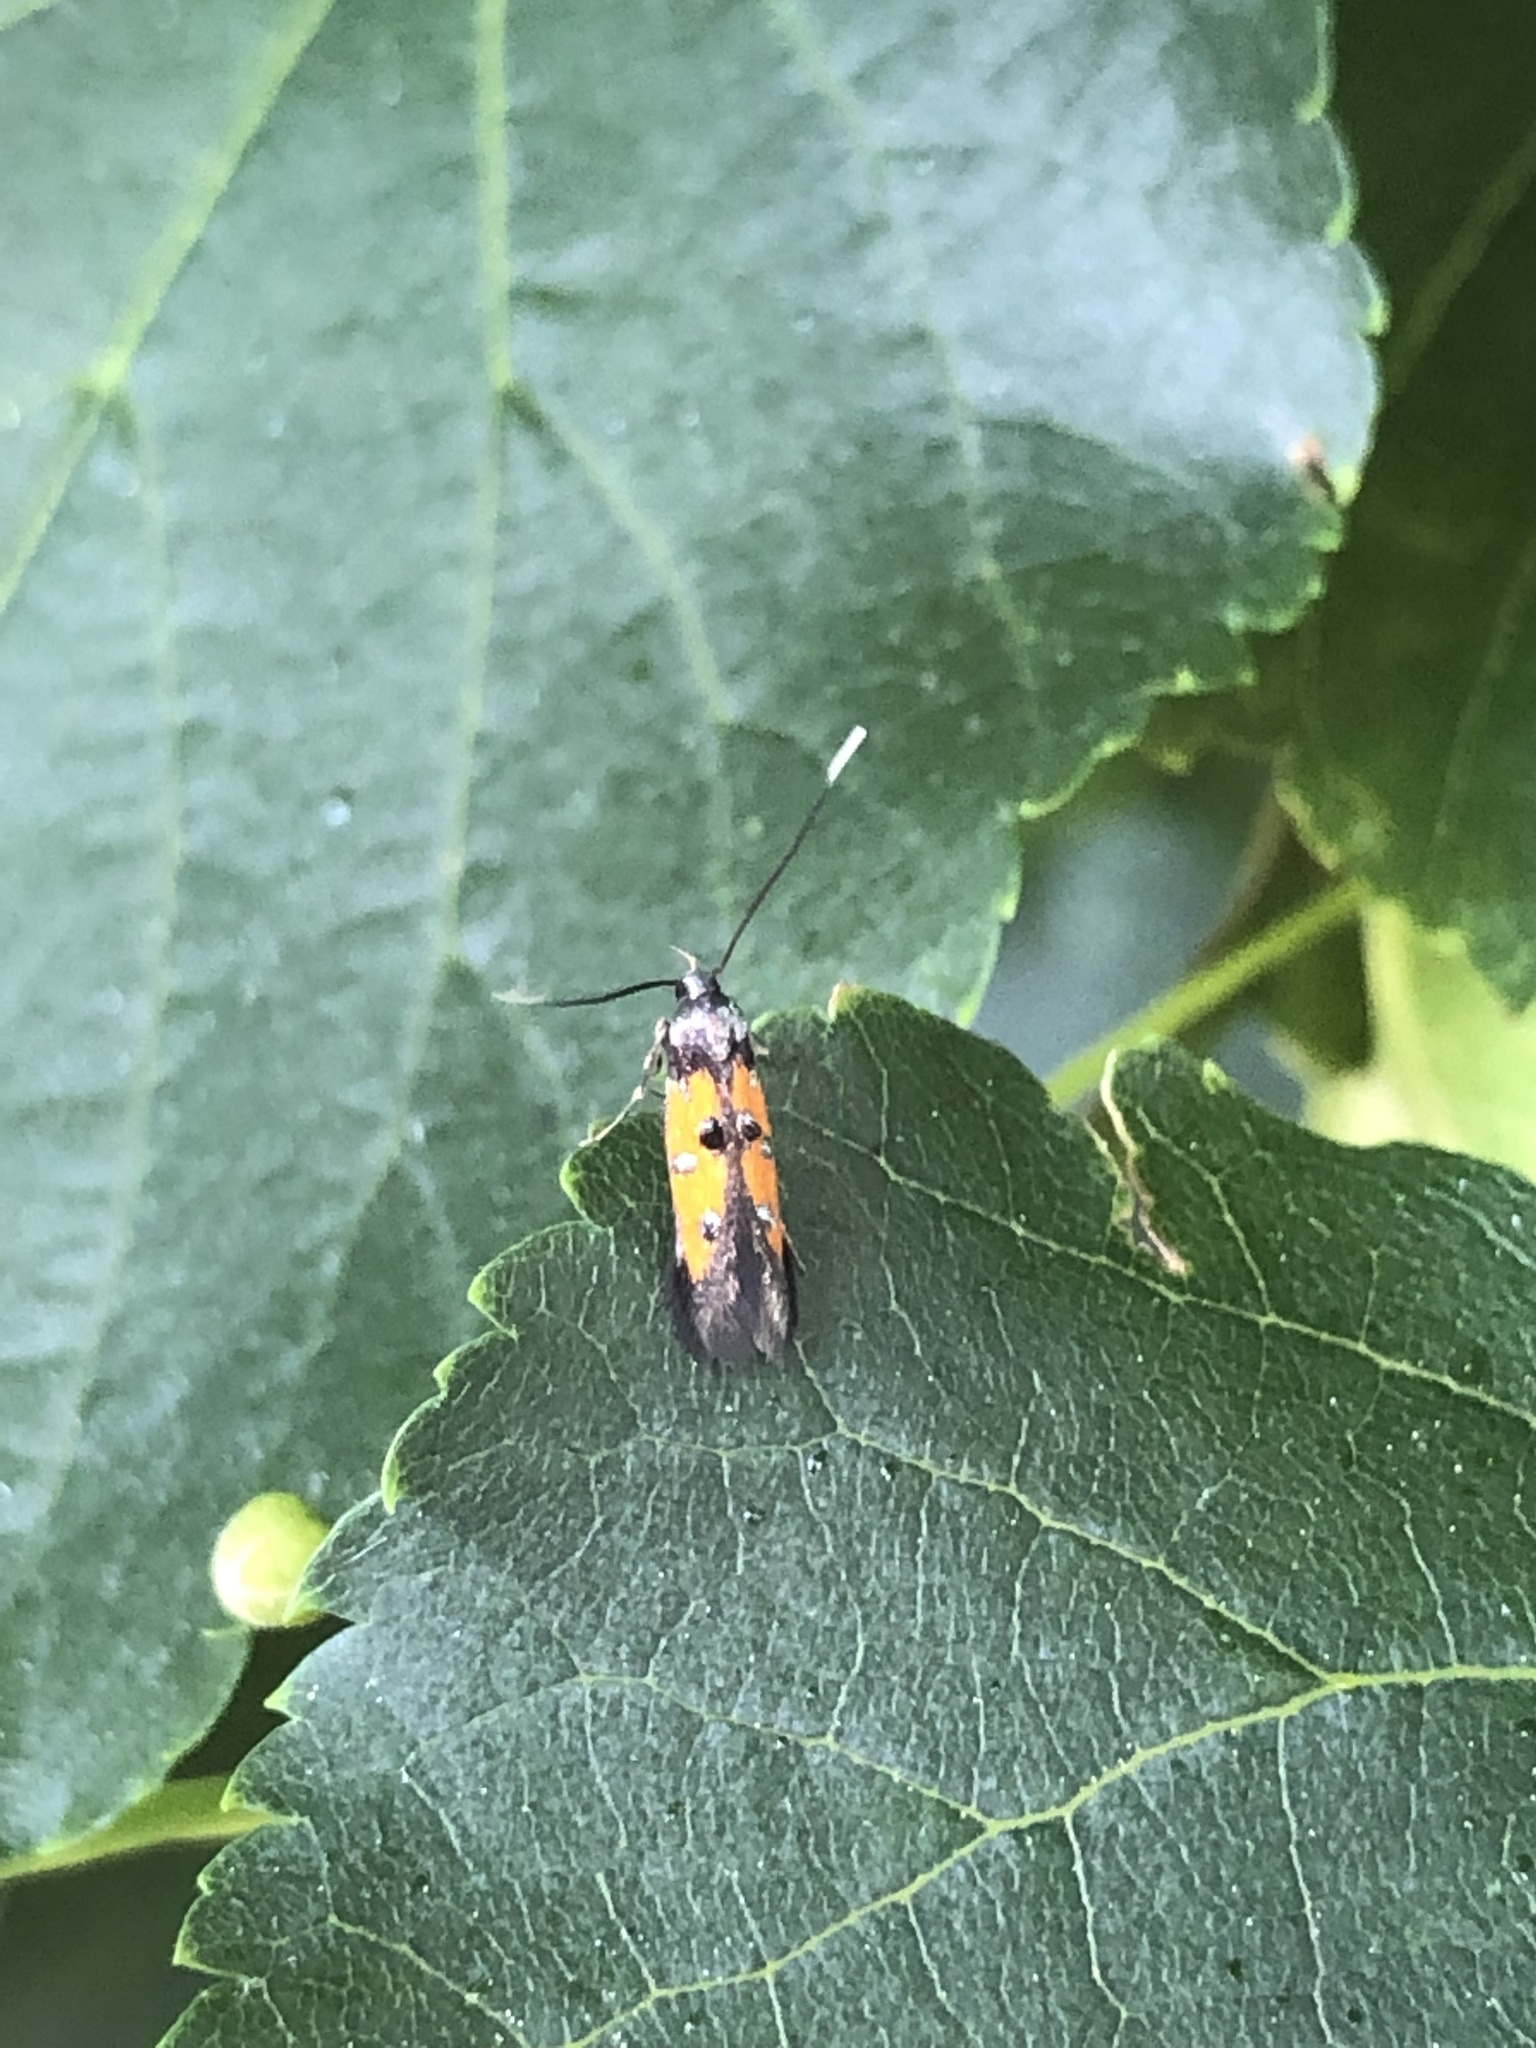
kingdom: Animalia
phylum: Arthropoda
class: Insecta
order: Lepidoptera
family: Elachistidae
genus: Chrysoclista
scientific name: Chrysoclista linneela
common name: Lime cosmet
